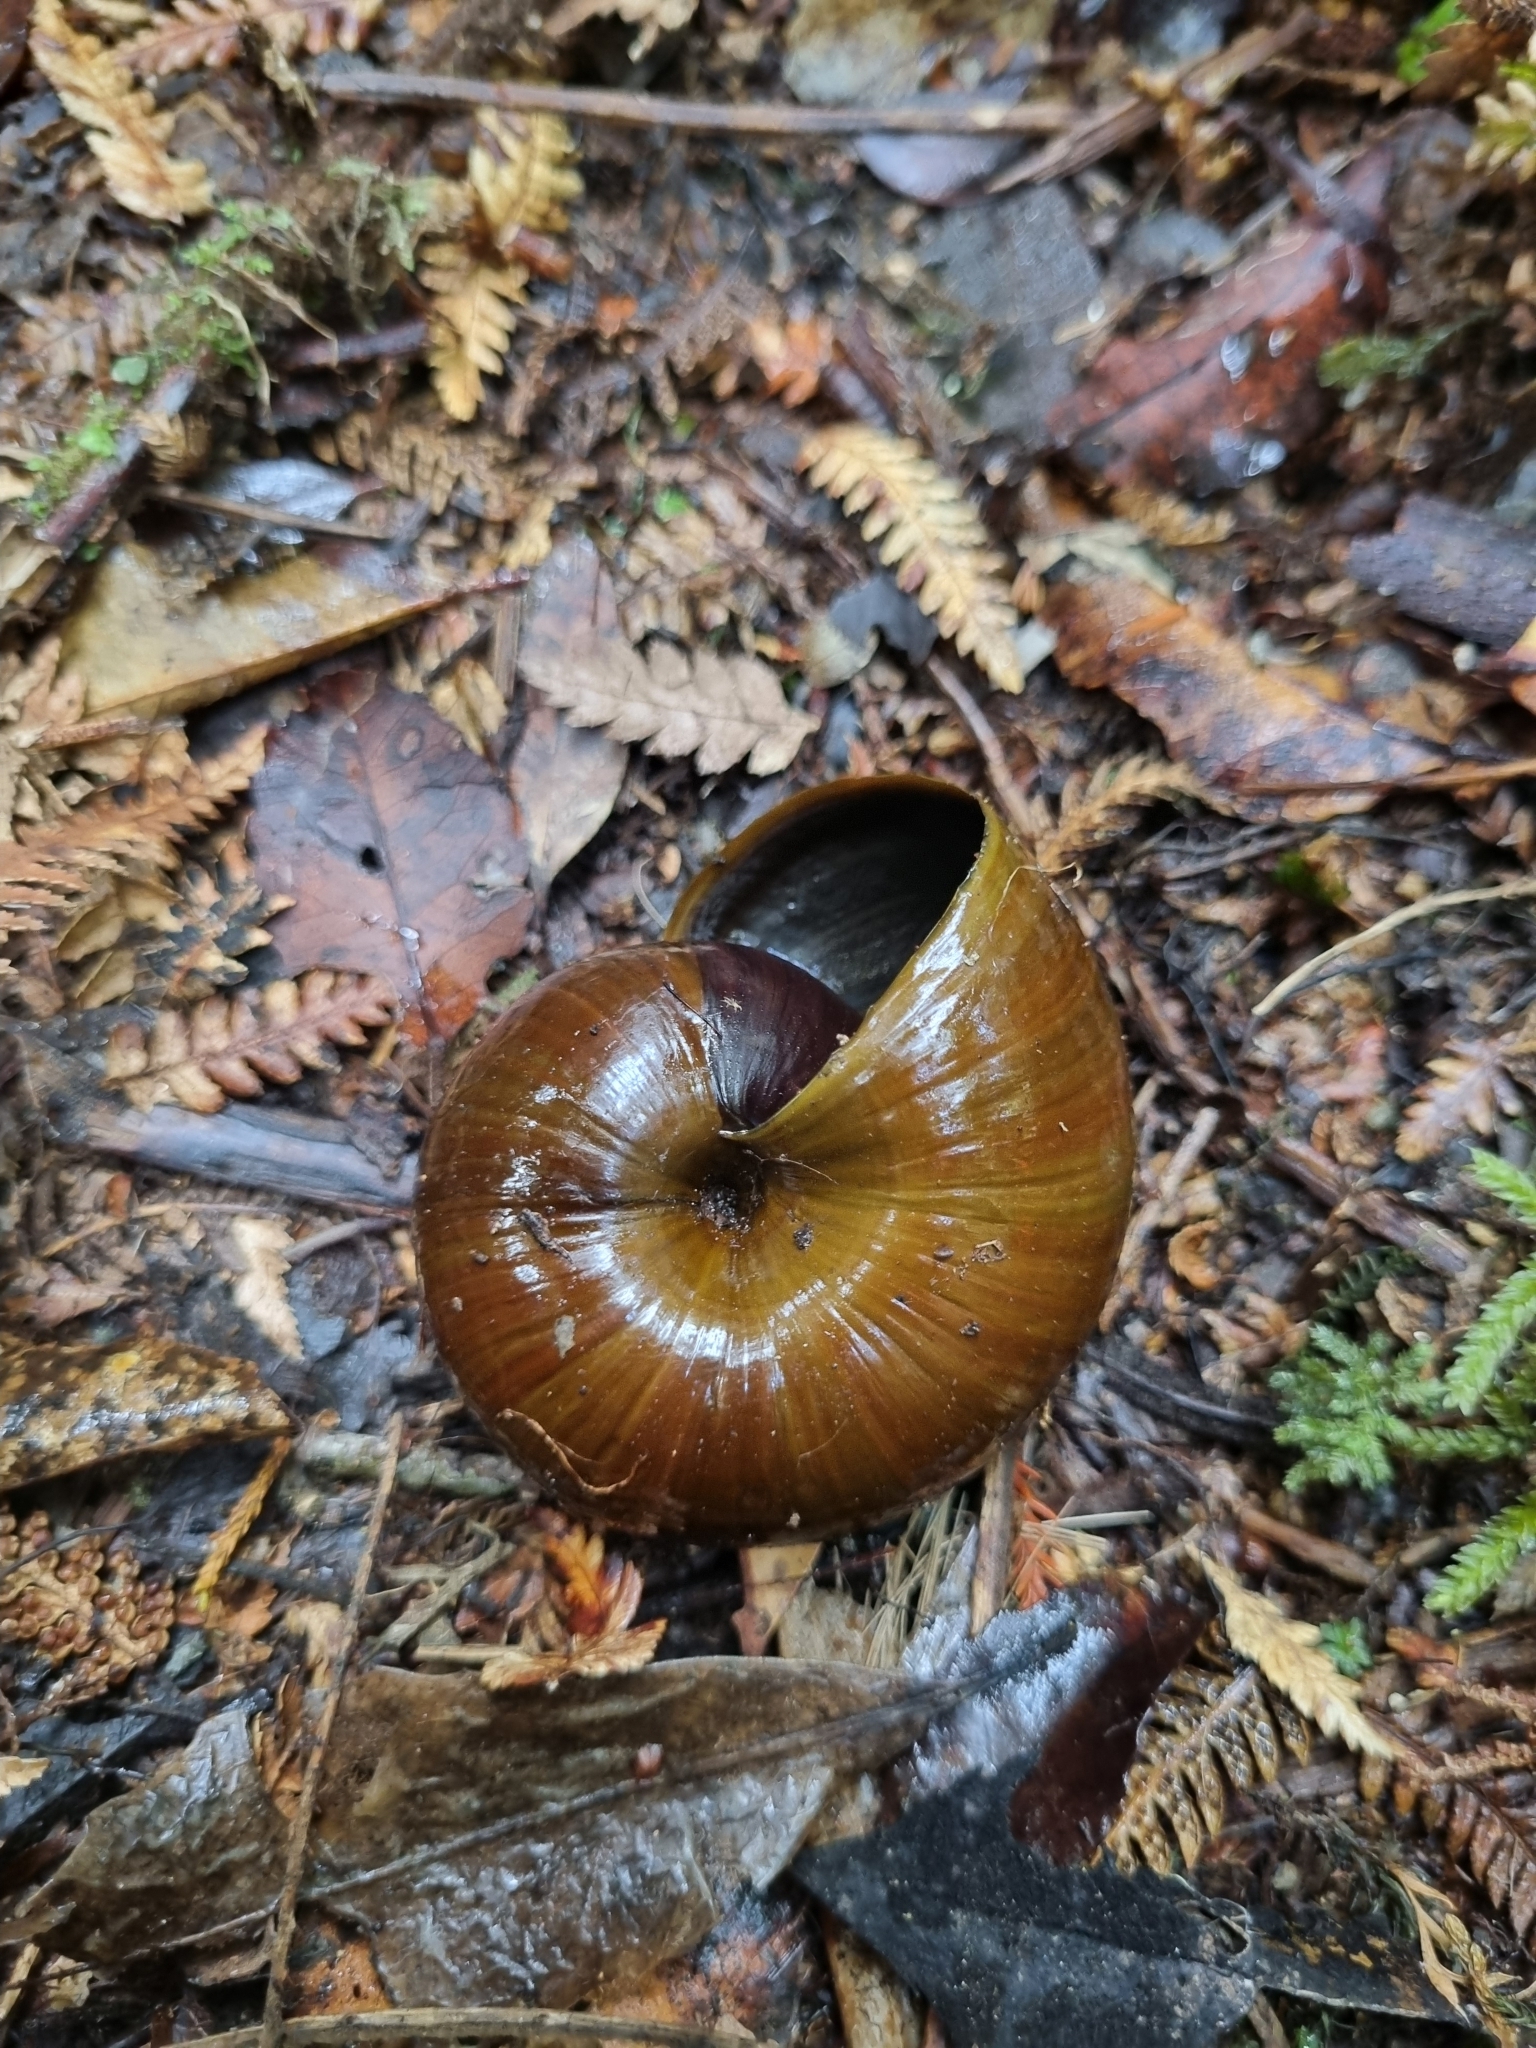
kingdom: Animalia
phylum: Mollusca
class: Gastropoda
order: Stylommatophora
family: Rhytididae
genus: Powelliphanta
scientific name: Powelliphanta superba
